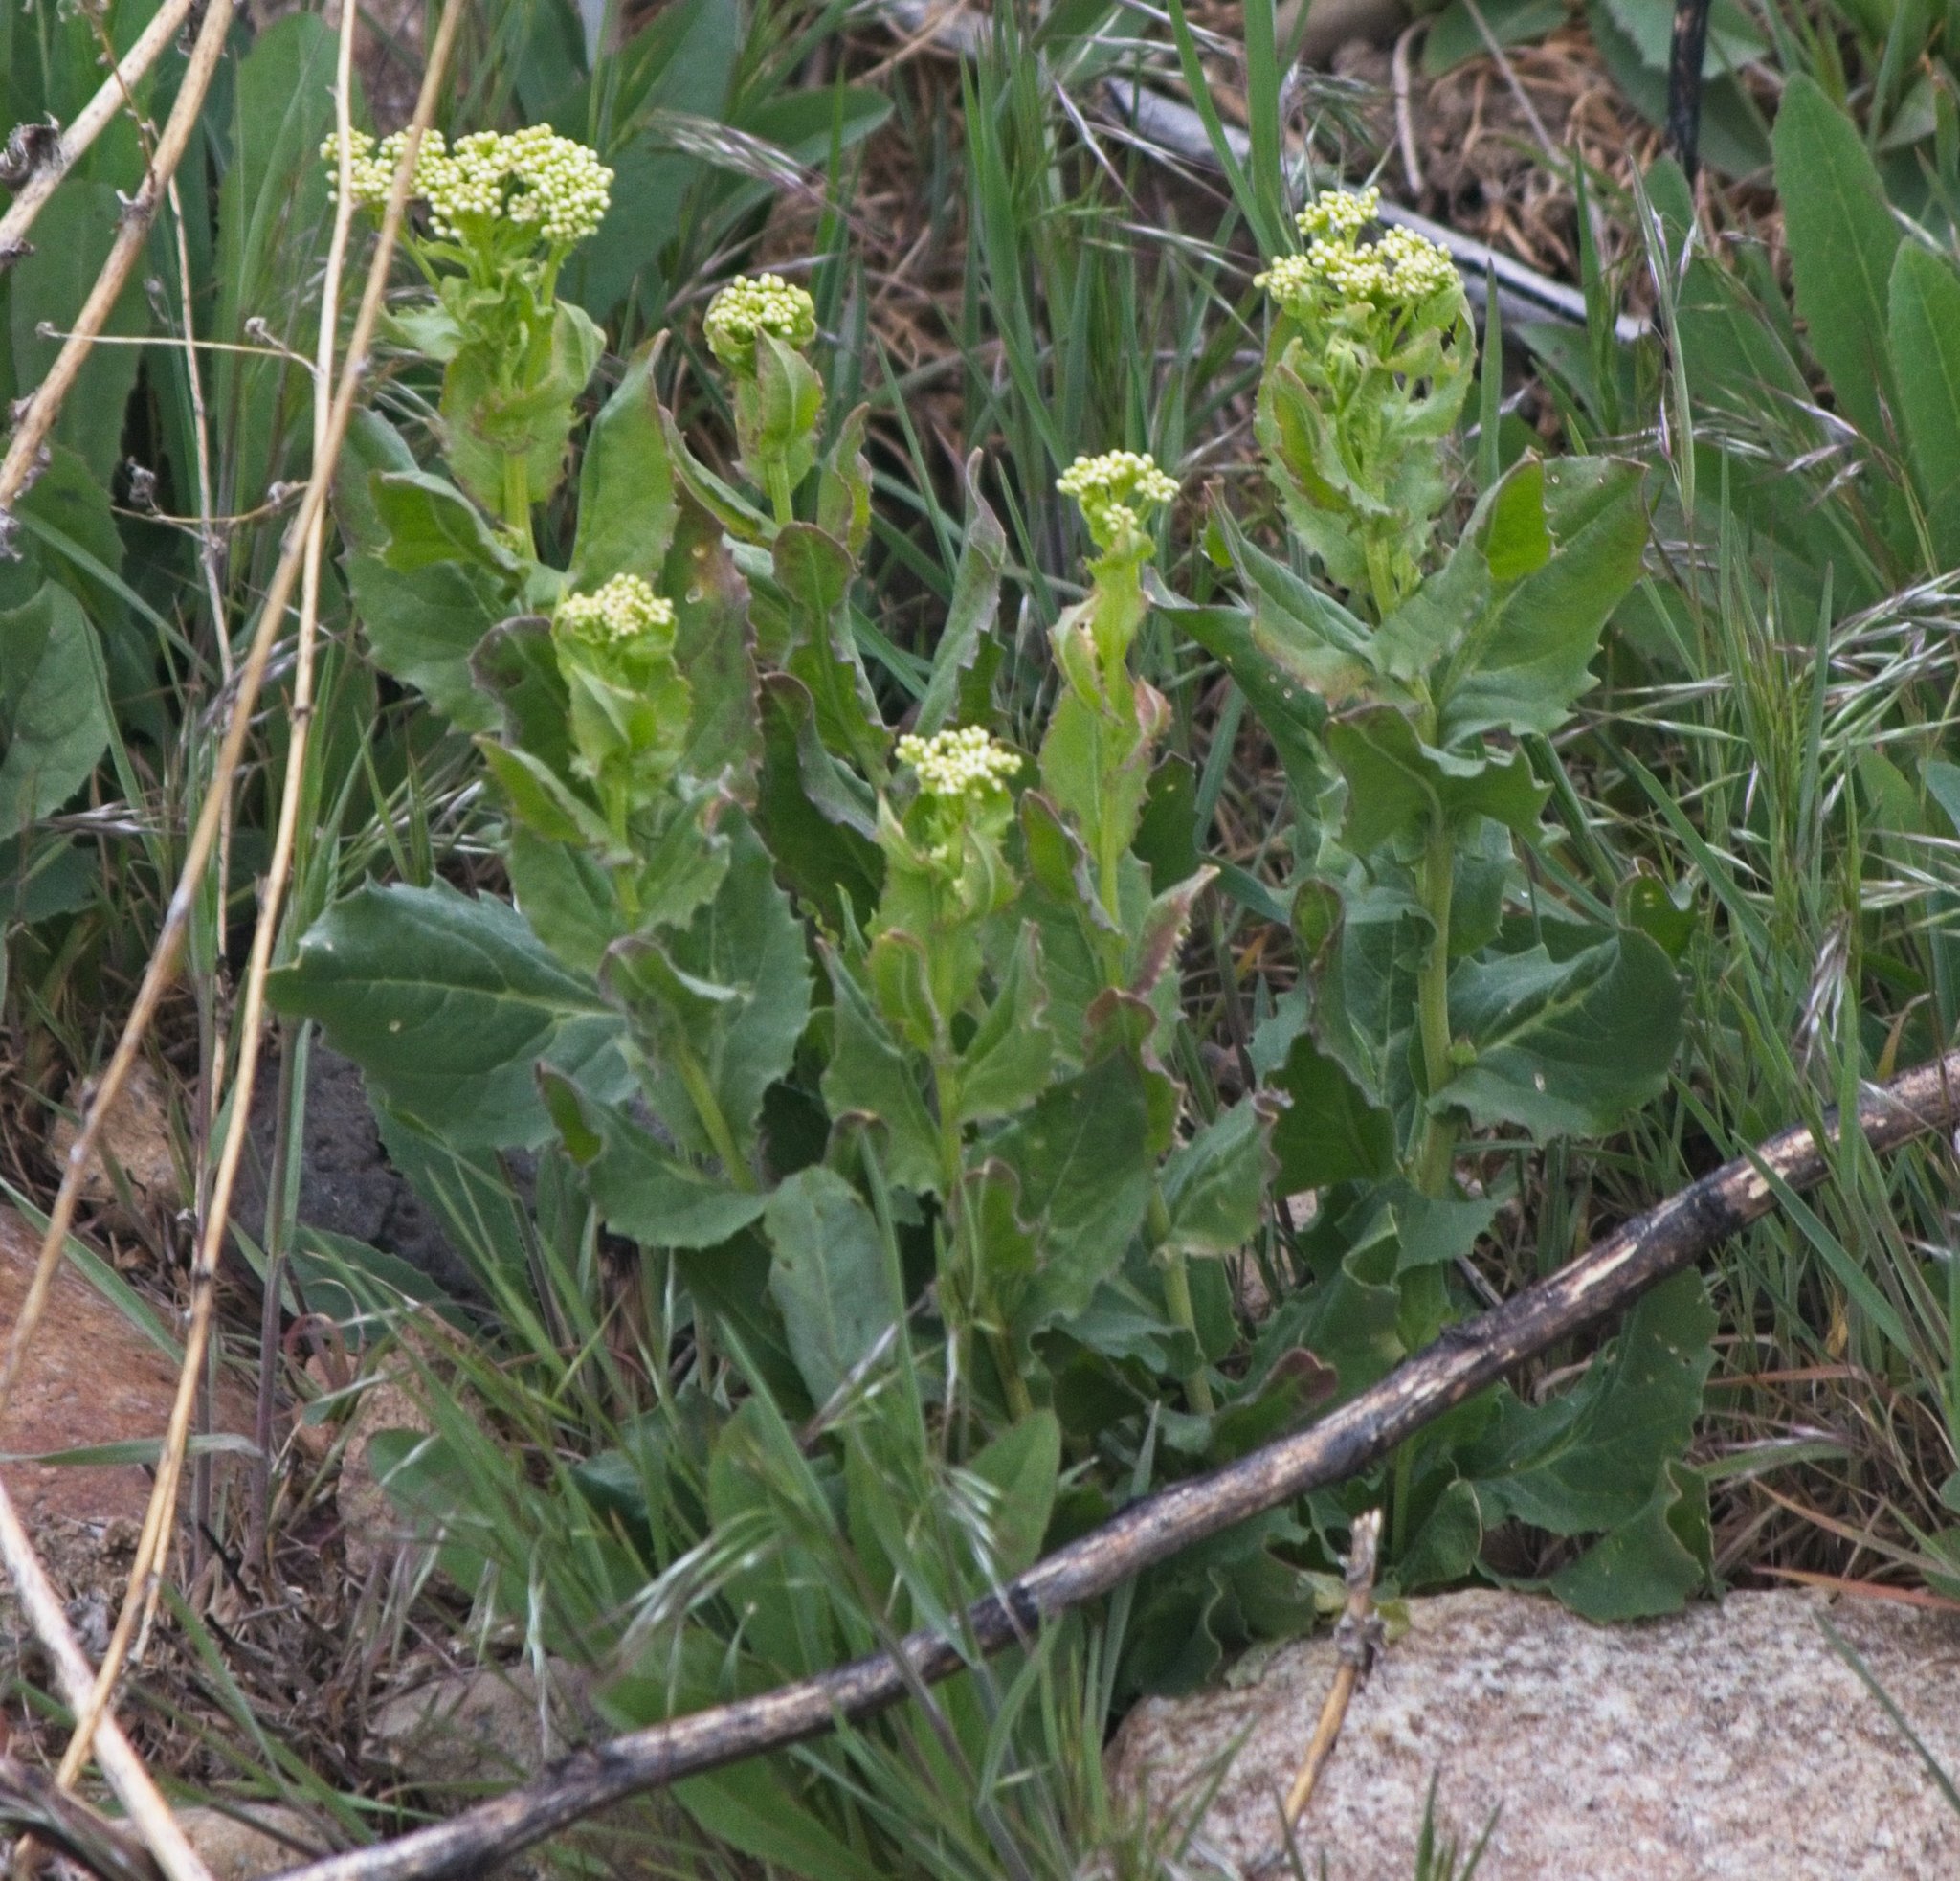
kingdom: Plantae
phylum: Tracheophyta
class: Magnoliopsida
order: Brassicales
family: Brassicaceae
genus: Lepidium
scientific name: Lepidium draba
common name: Hoary cress
